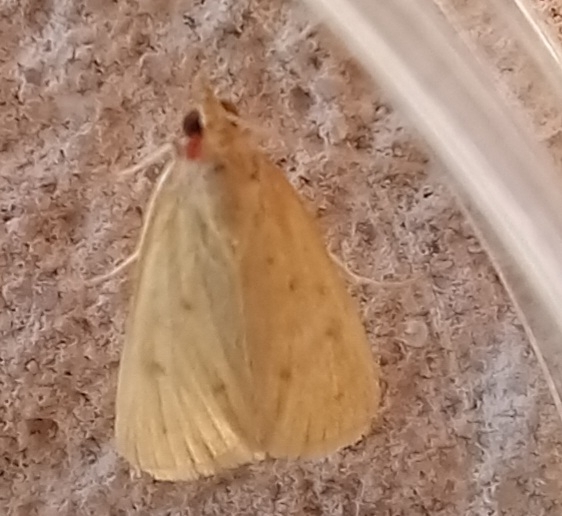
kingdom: Animalia
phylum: Arthropoda
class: Insecta
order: Lepidoptera
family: Crambidae
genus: Achyra
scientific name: Achyra nudalis
